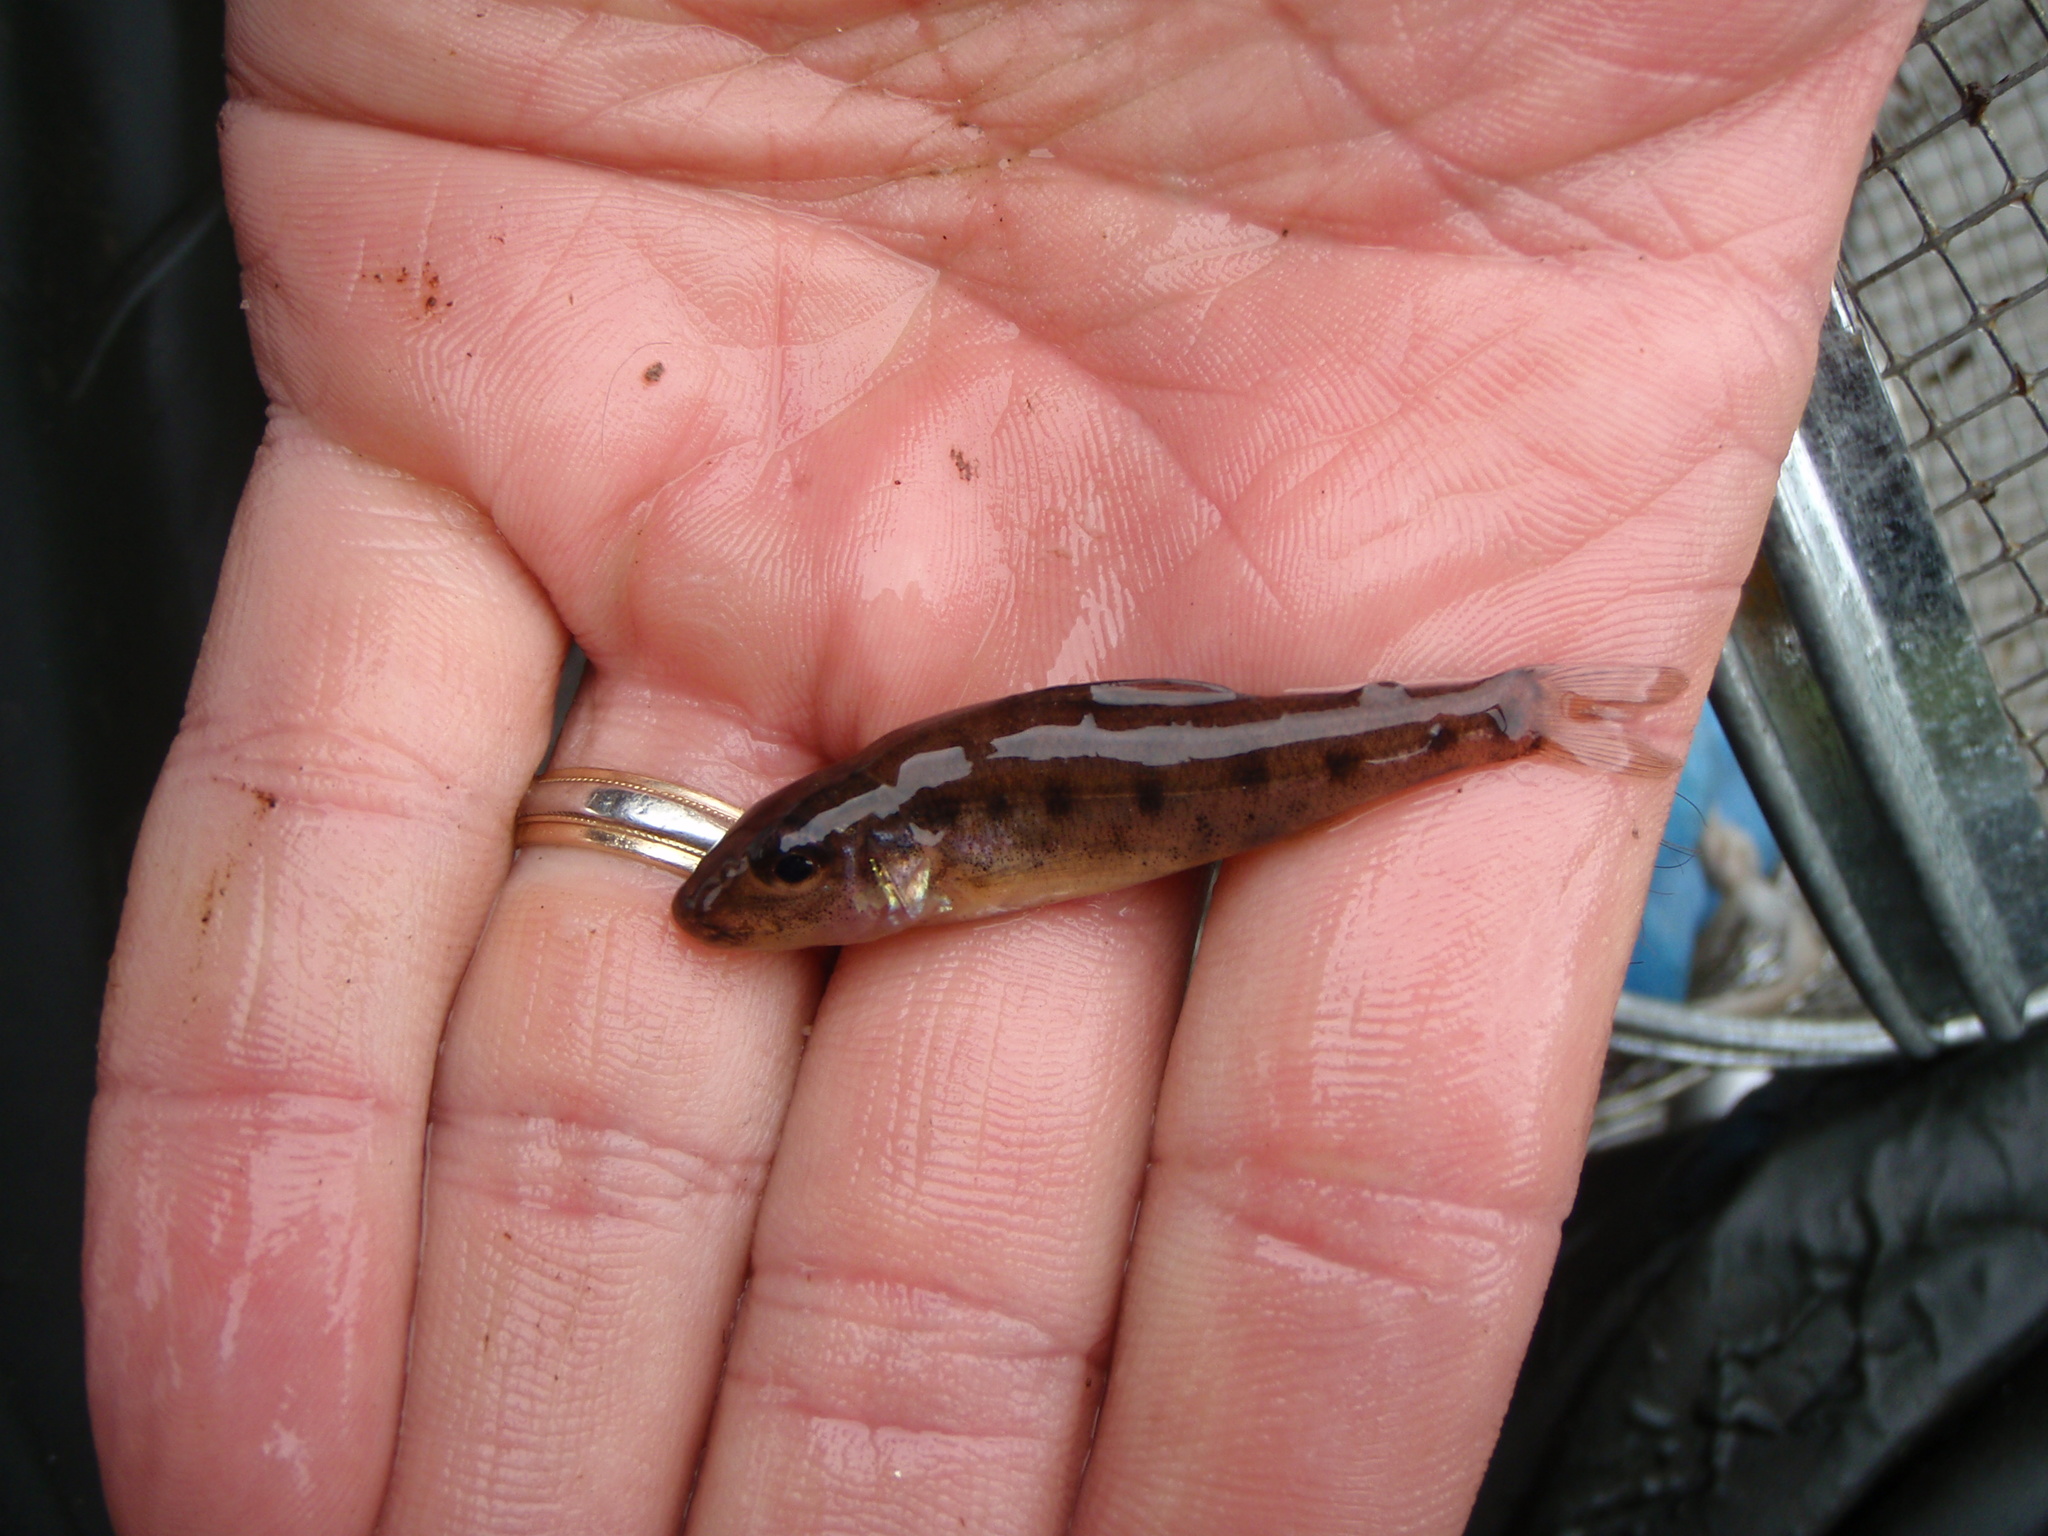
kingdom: Animalia
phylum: Chordata
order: Percopsiformes
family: Percopsidae
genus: Percopsis
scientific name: Percopsis omiscomaycus
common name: Trout-perch
